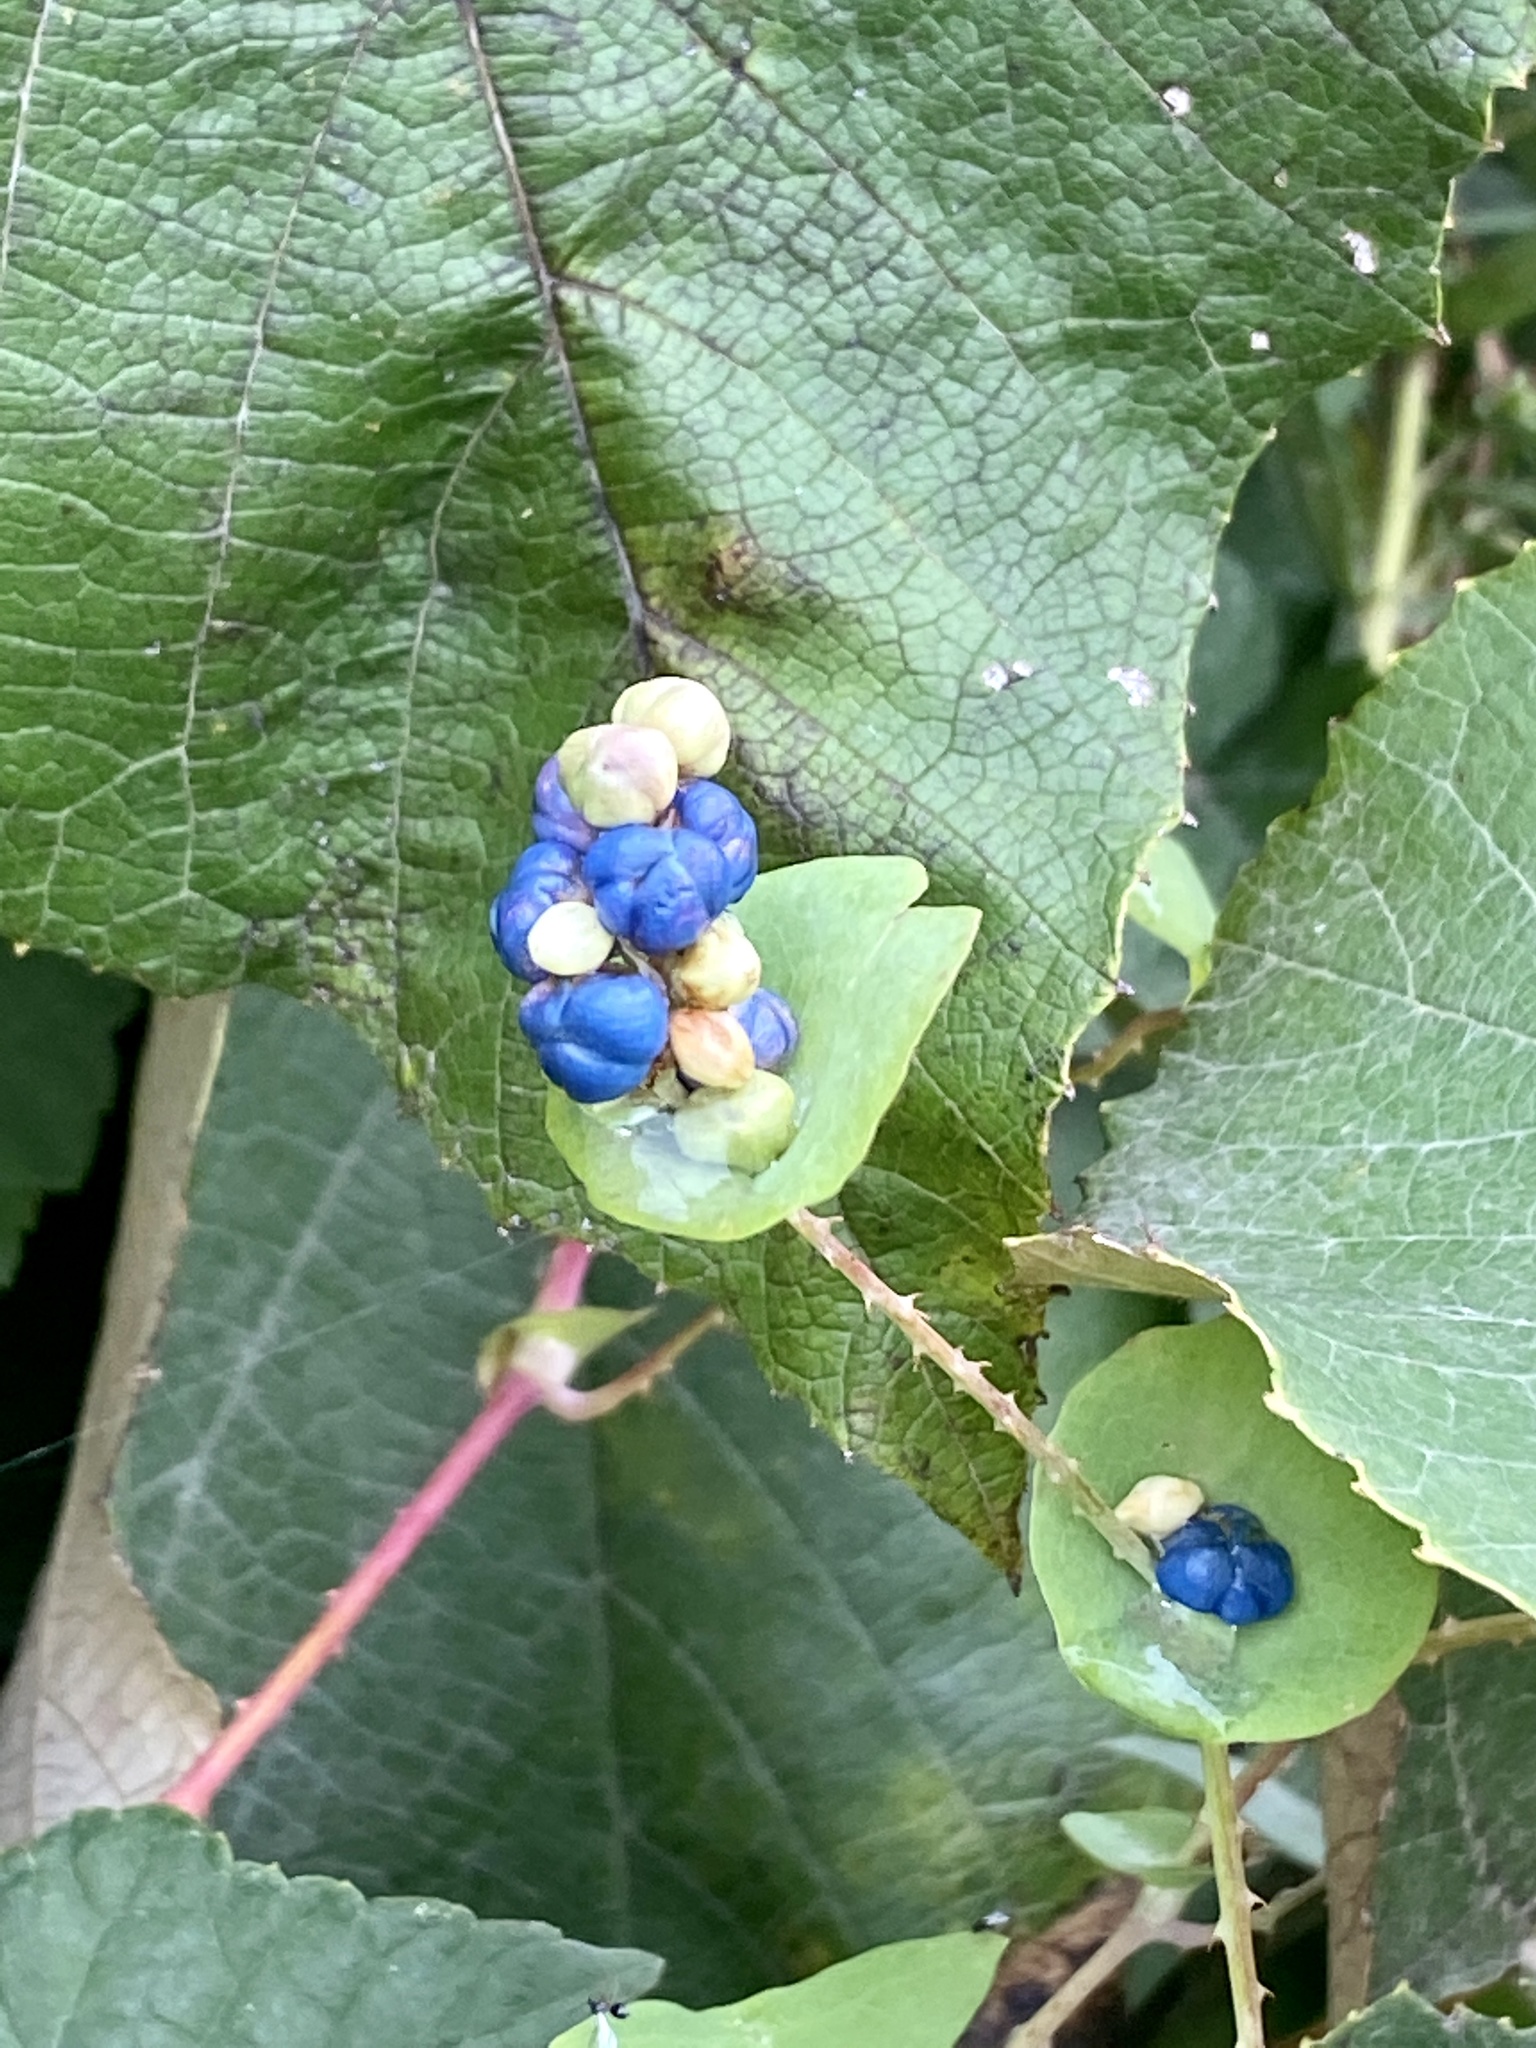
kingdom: Plantae
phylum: Tracheophyta
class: Magnoliopsida
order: Caryophyllales
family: Polygonaceae
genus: Persicaria
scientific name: Persicaria perfoliata
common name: Asiatic tearthumb
